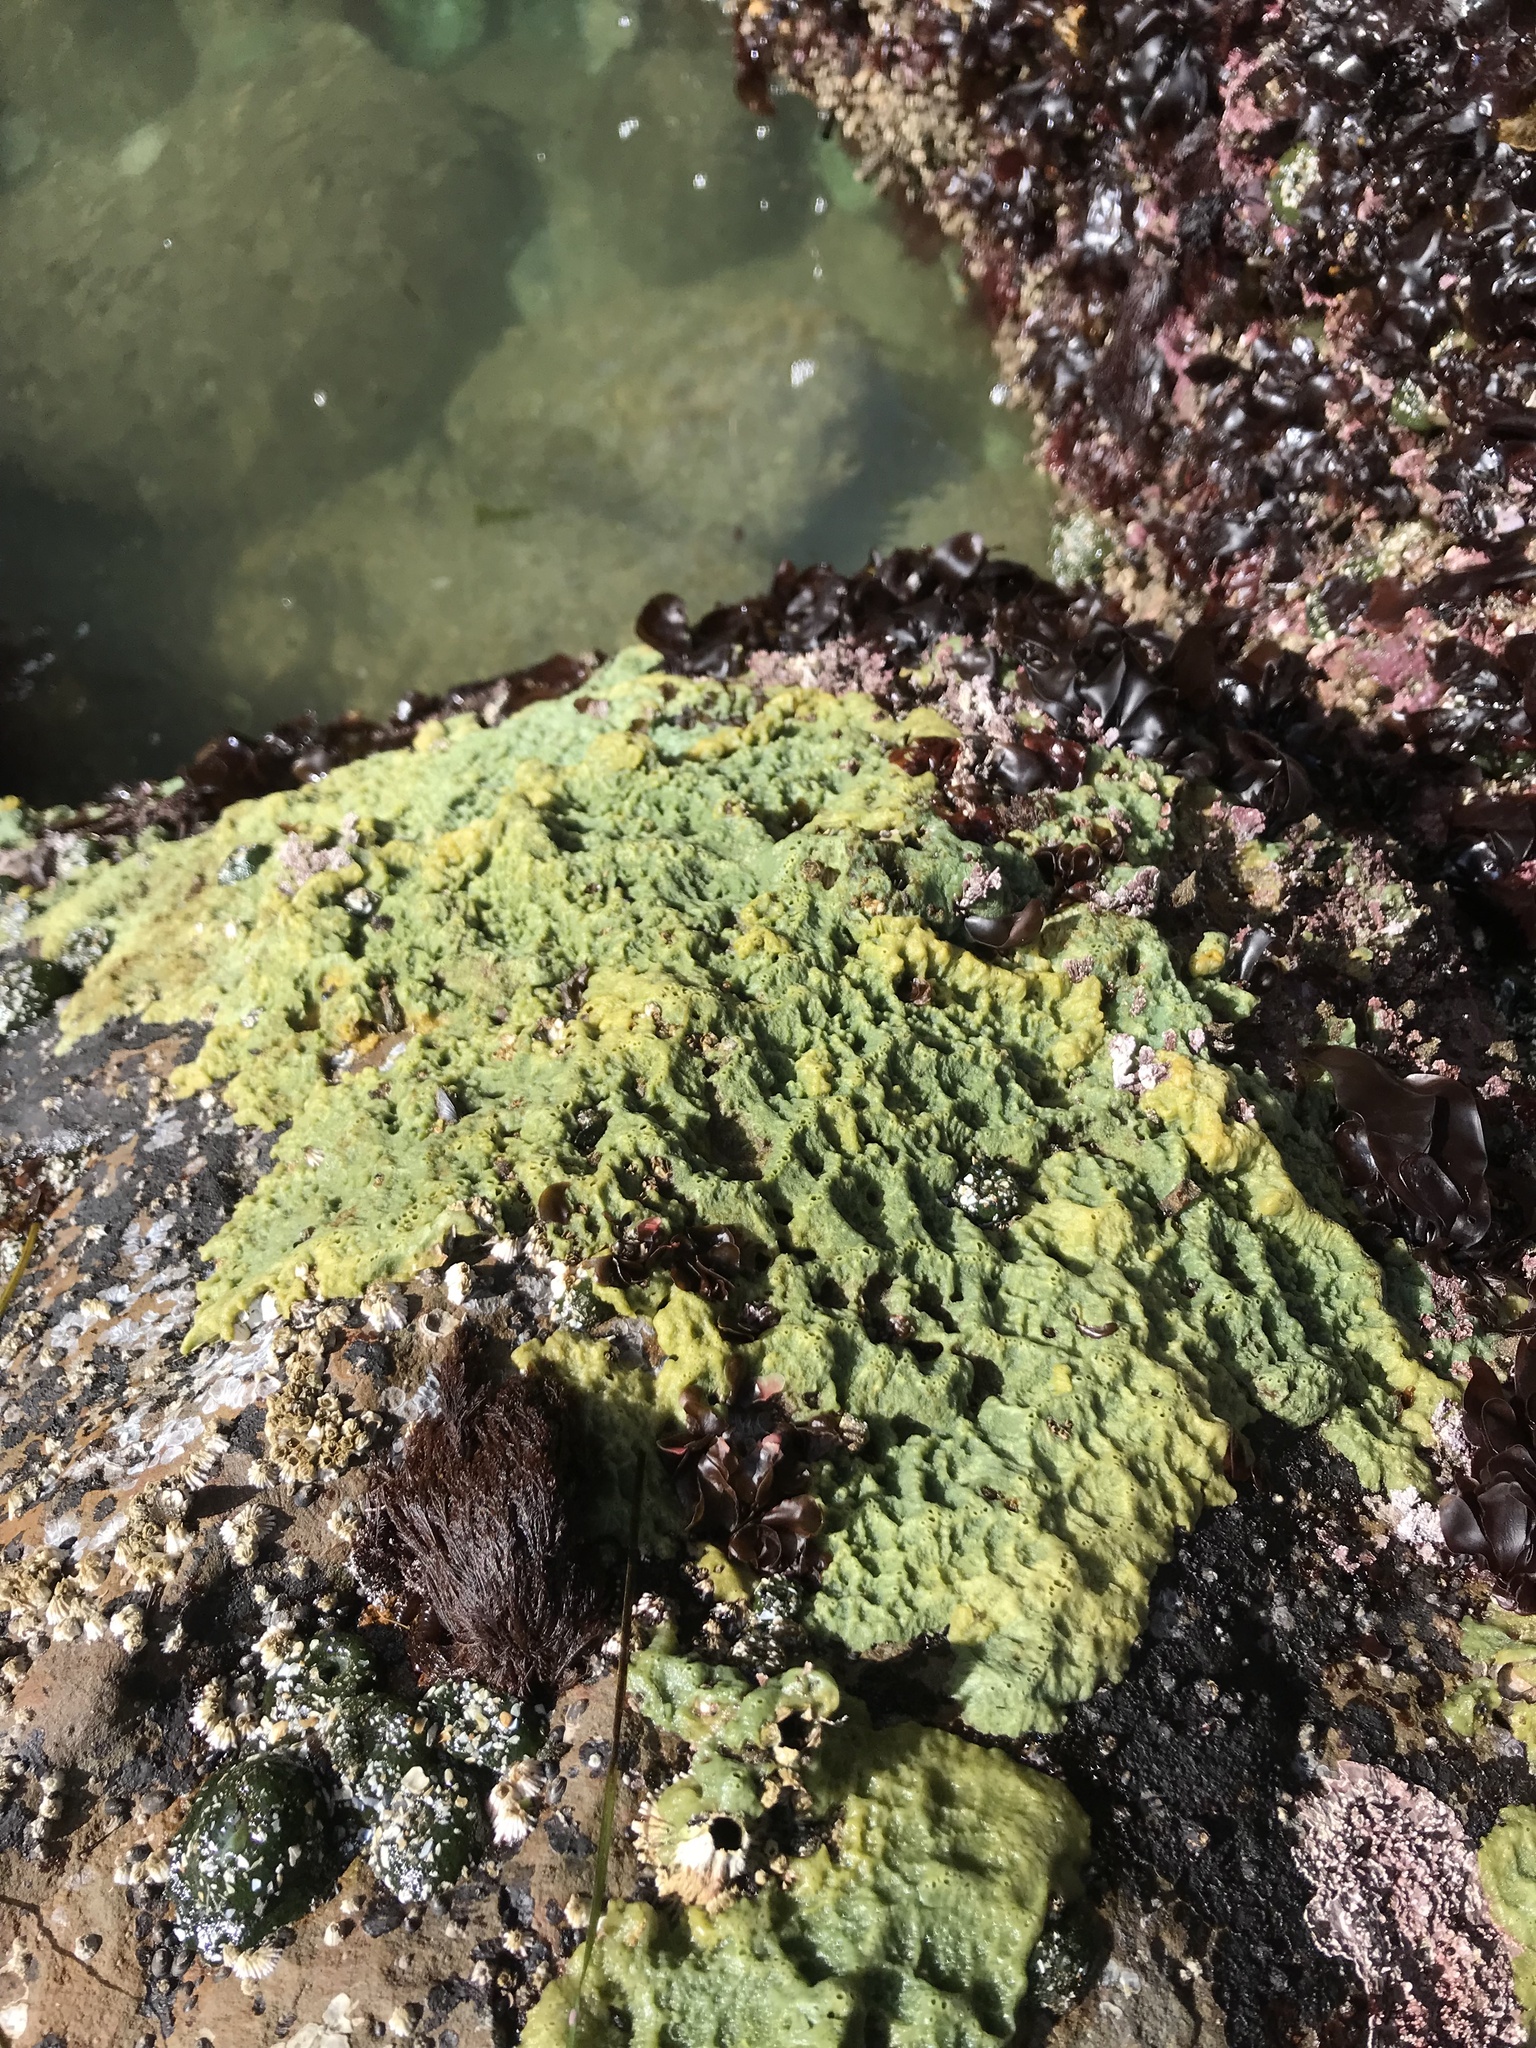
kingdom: Animalia
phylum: Porifera
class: Demospongiae
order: Suberitida
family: Halichondriidae
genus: Halichondria
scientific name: Halichondria panicea
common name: Breadcrumb sponge
